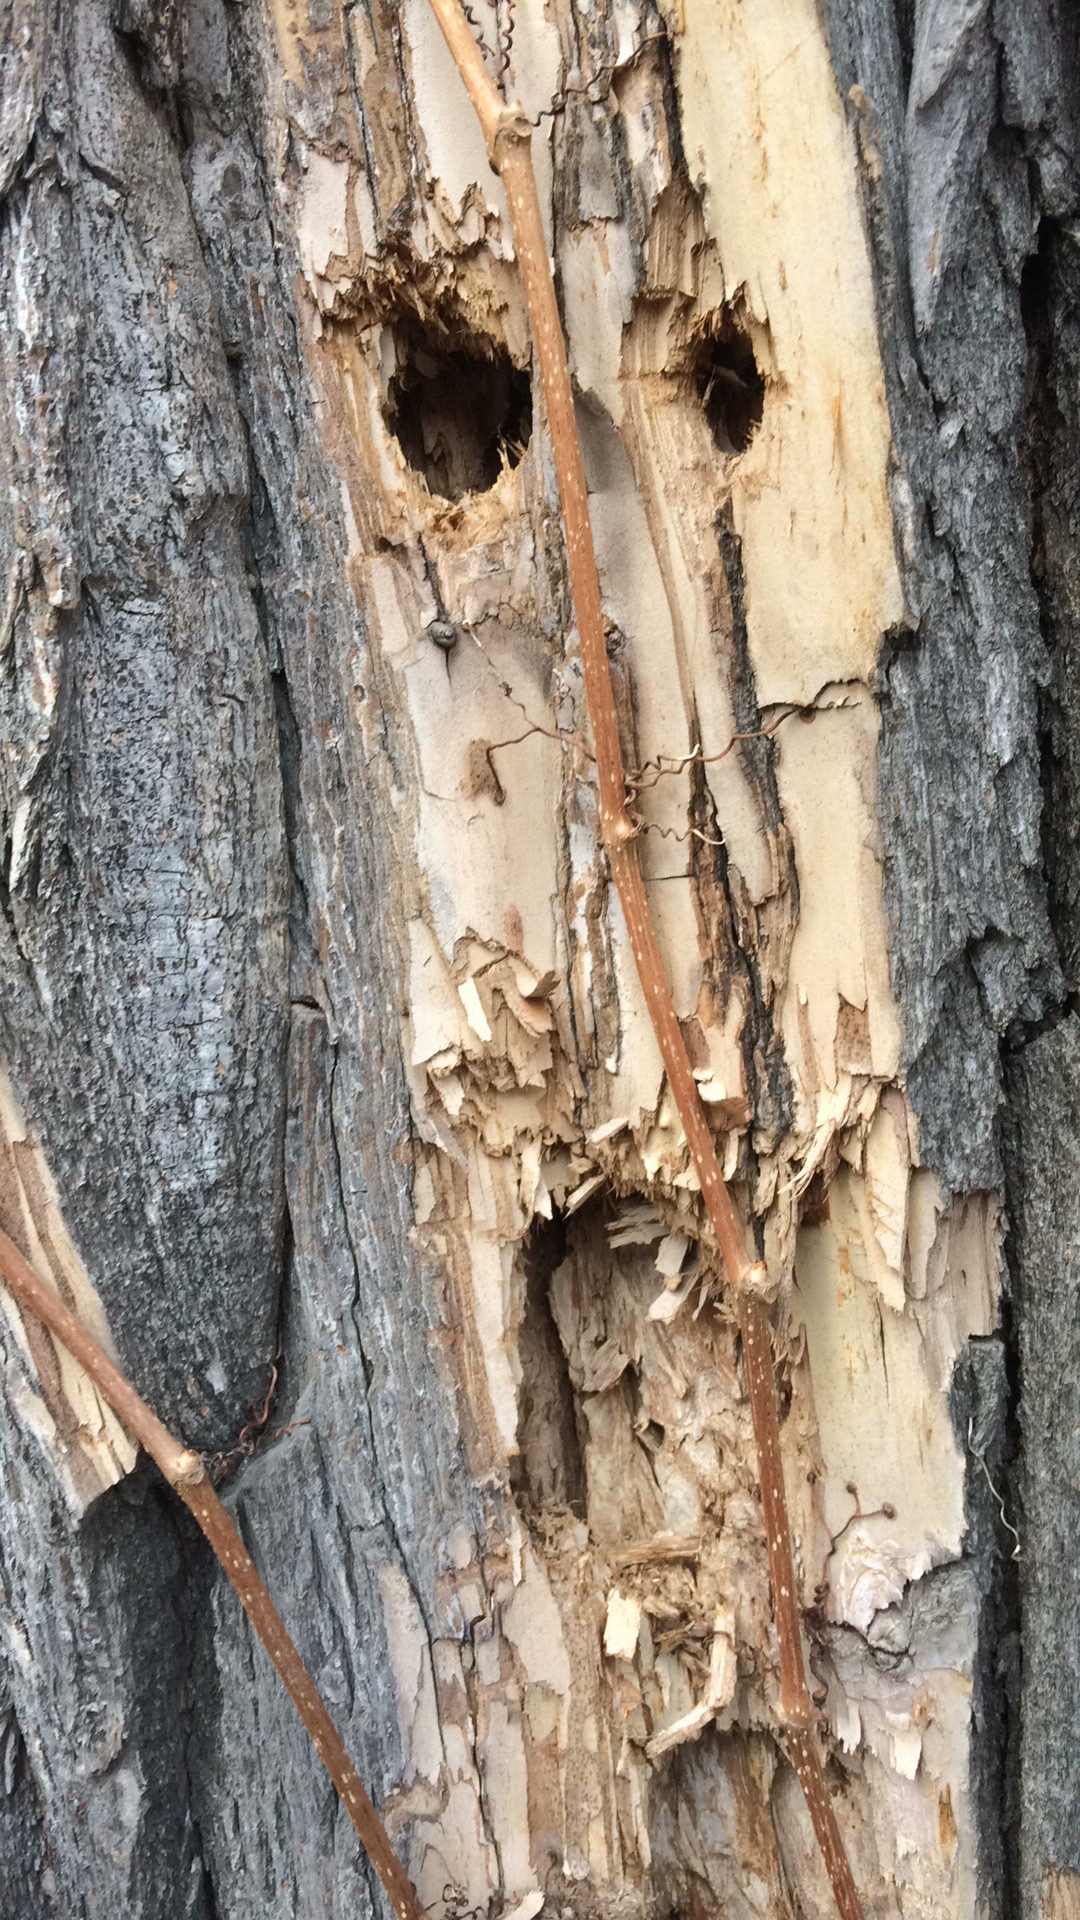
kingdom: Animalia
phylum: Chordata
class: Aves
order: Piciformes
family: Picidae
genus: Dryocopus
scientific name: Dryocopus pileatus
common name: Pileated woodpecker
